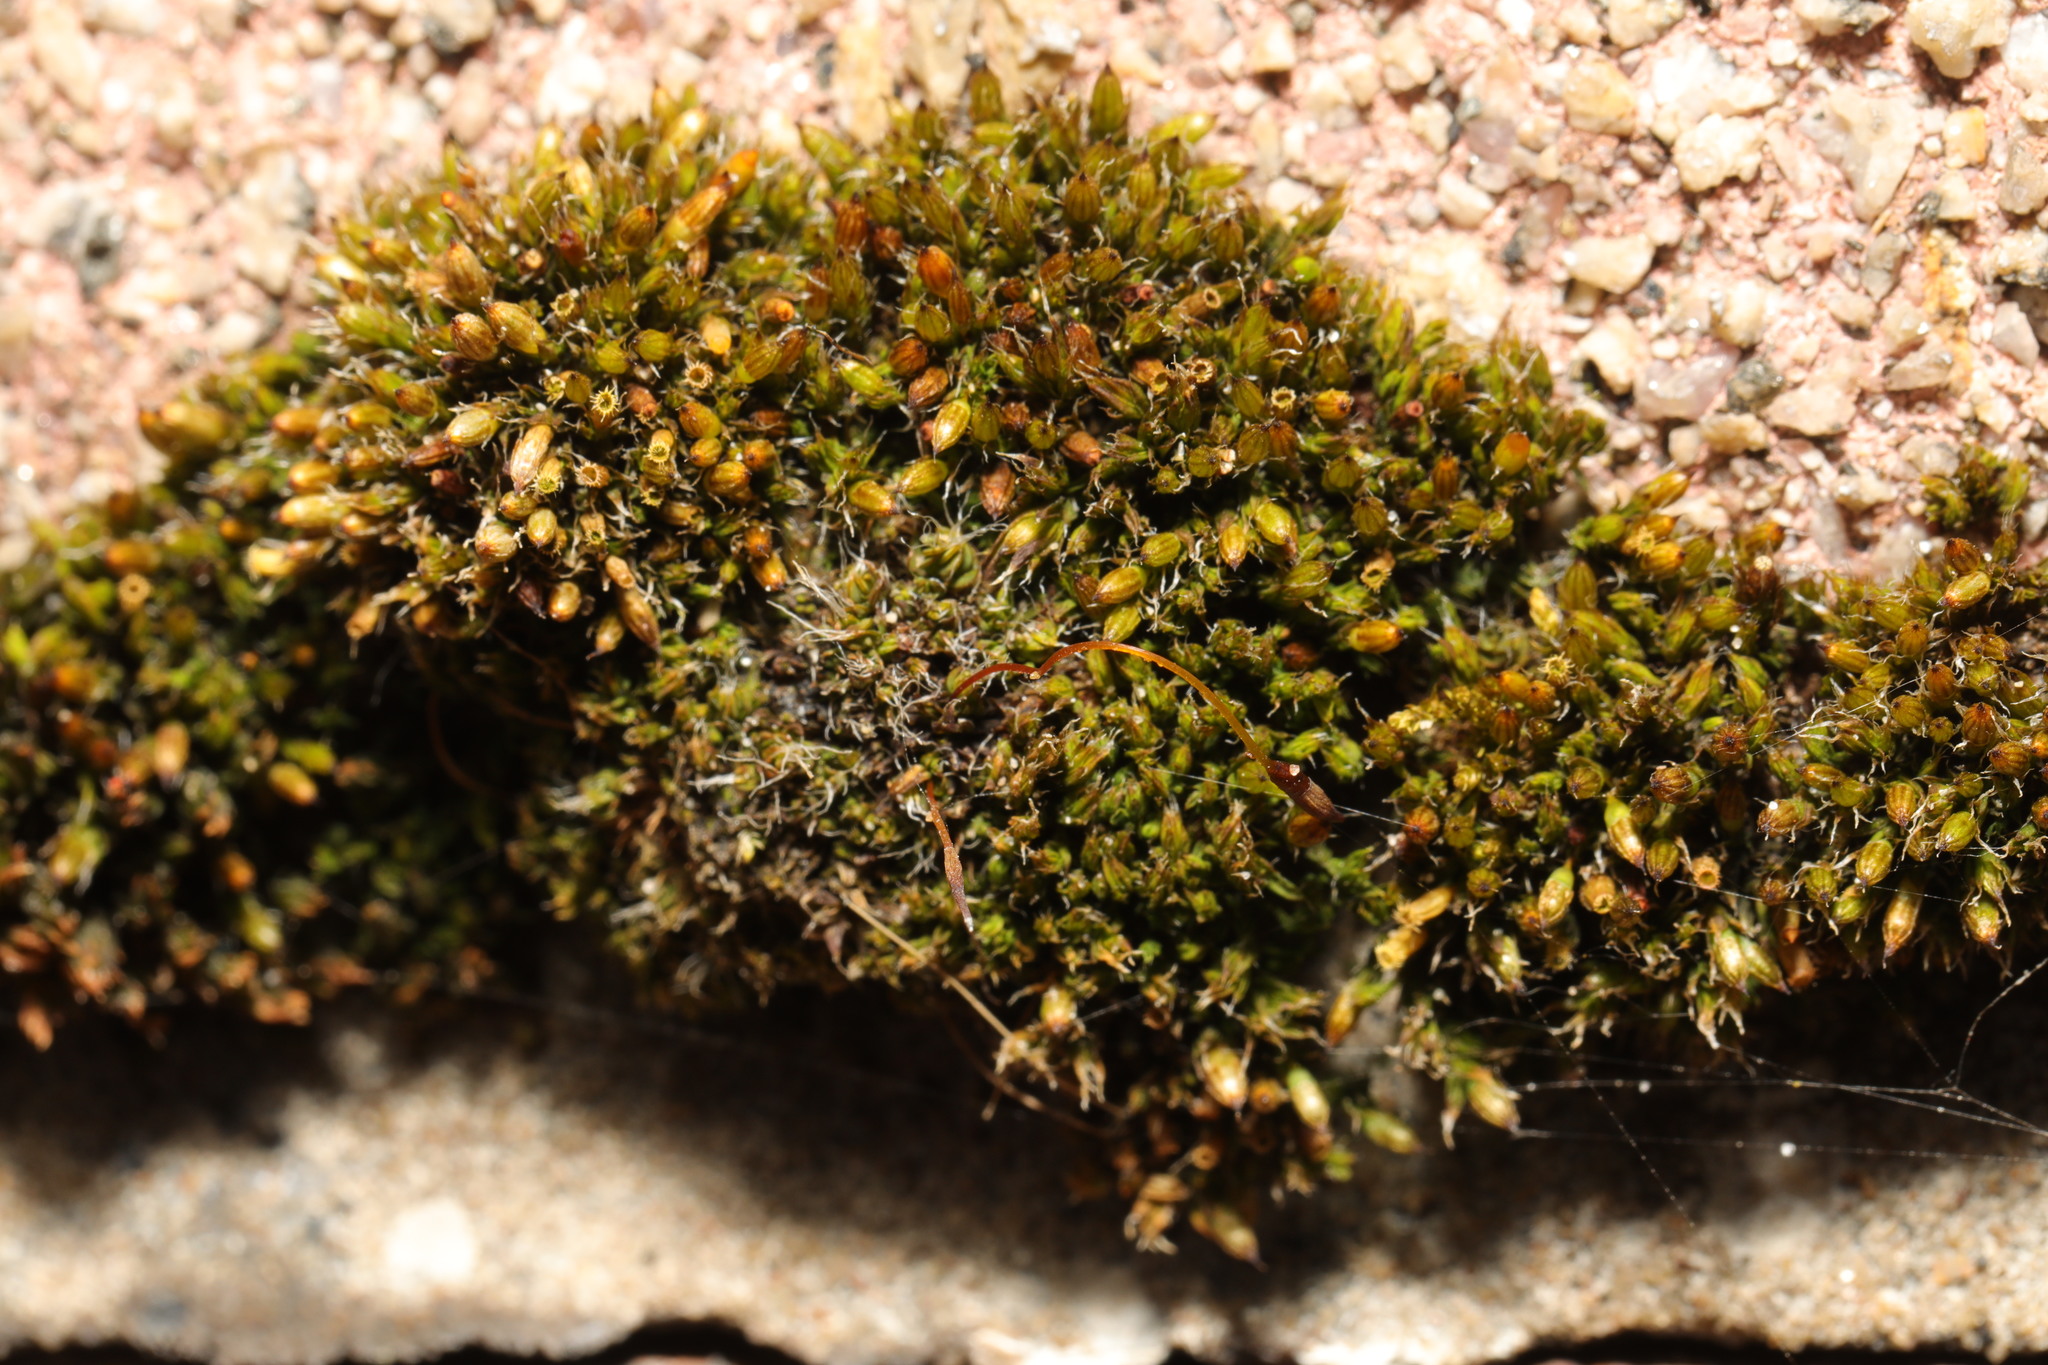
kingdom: Plantae
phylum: Bryophyta
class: Bryopsida
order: Orthotrichales
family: Orthotrichaceae
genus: Orthotrichum
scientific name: Orthotrichum diaphanum
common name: White-tipped bristle-moss
